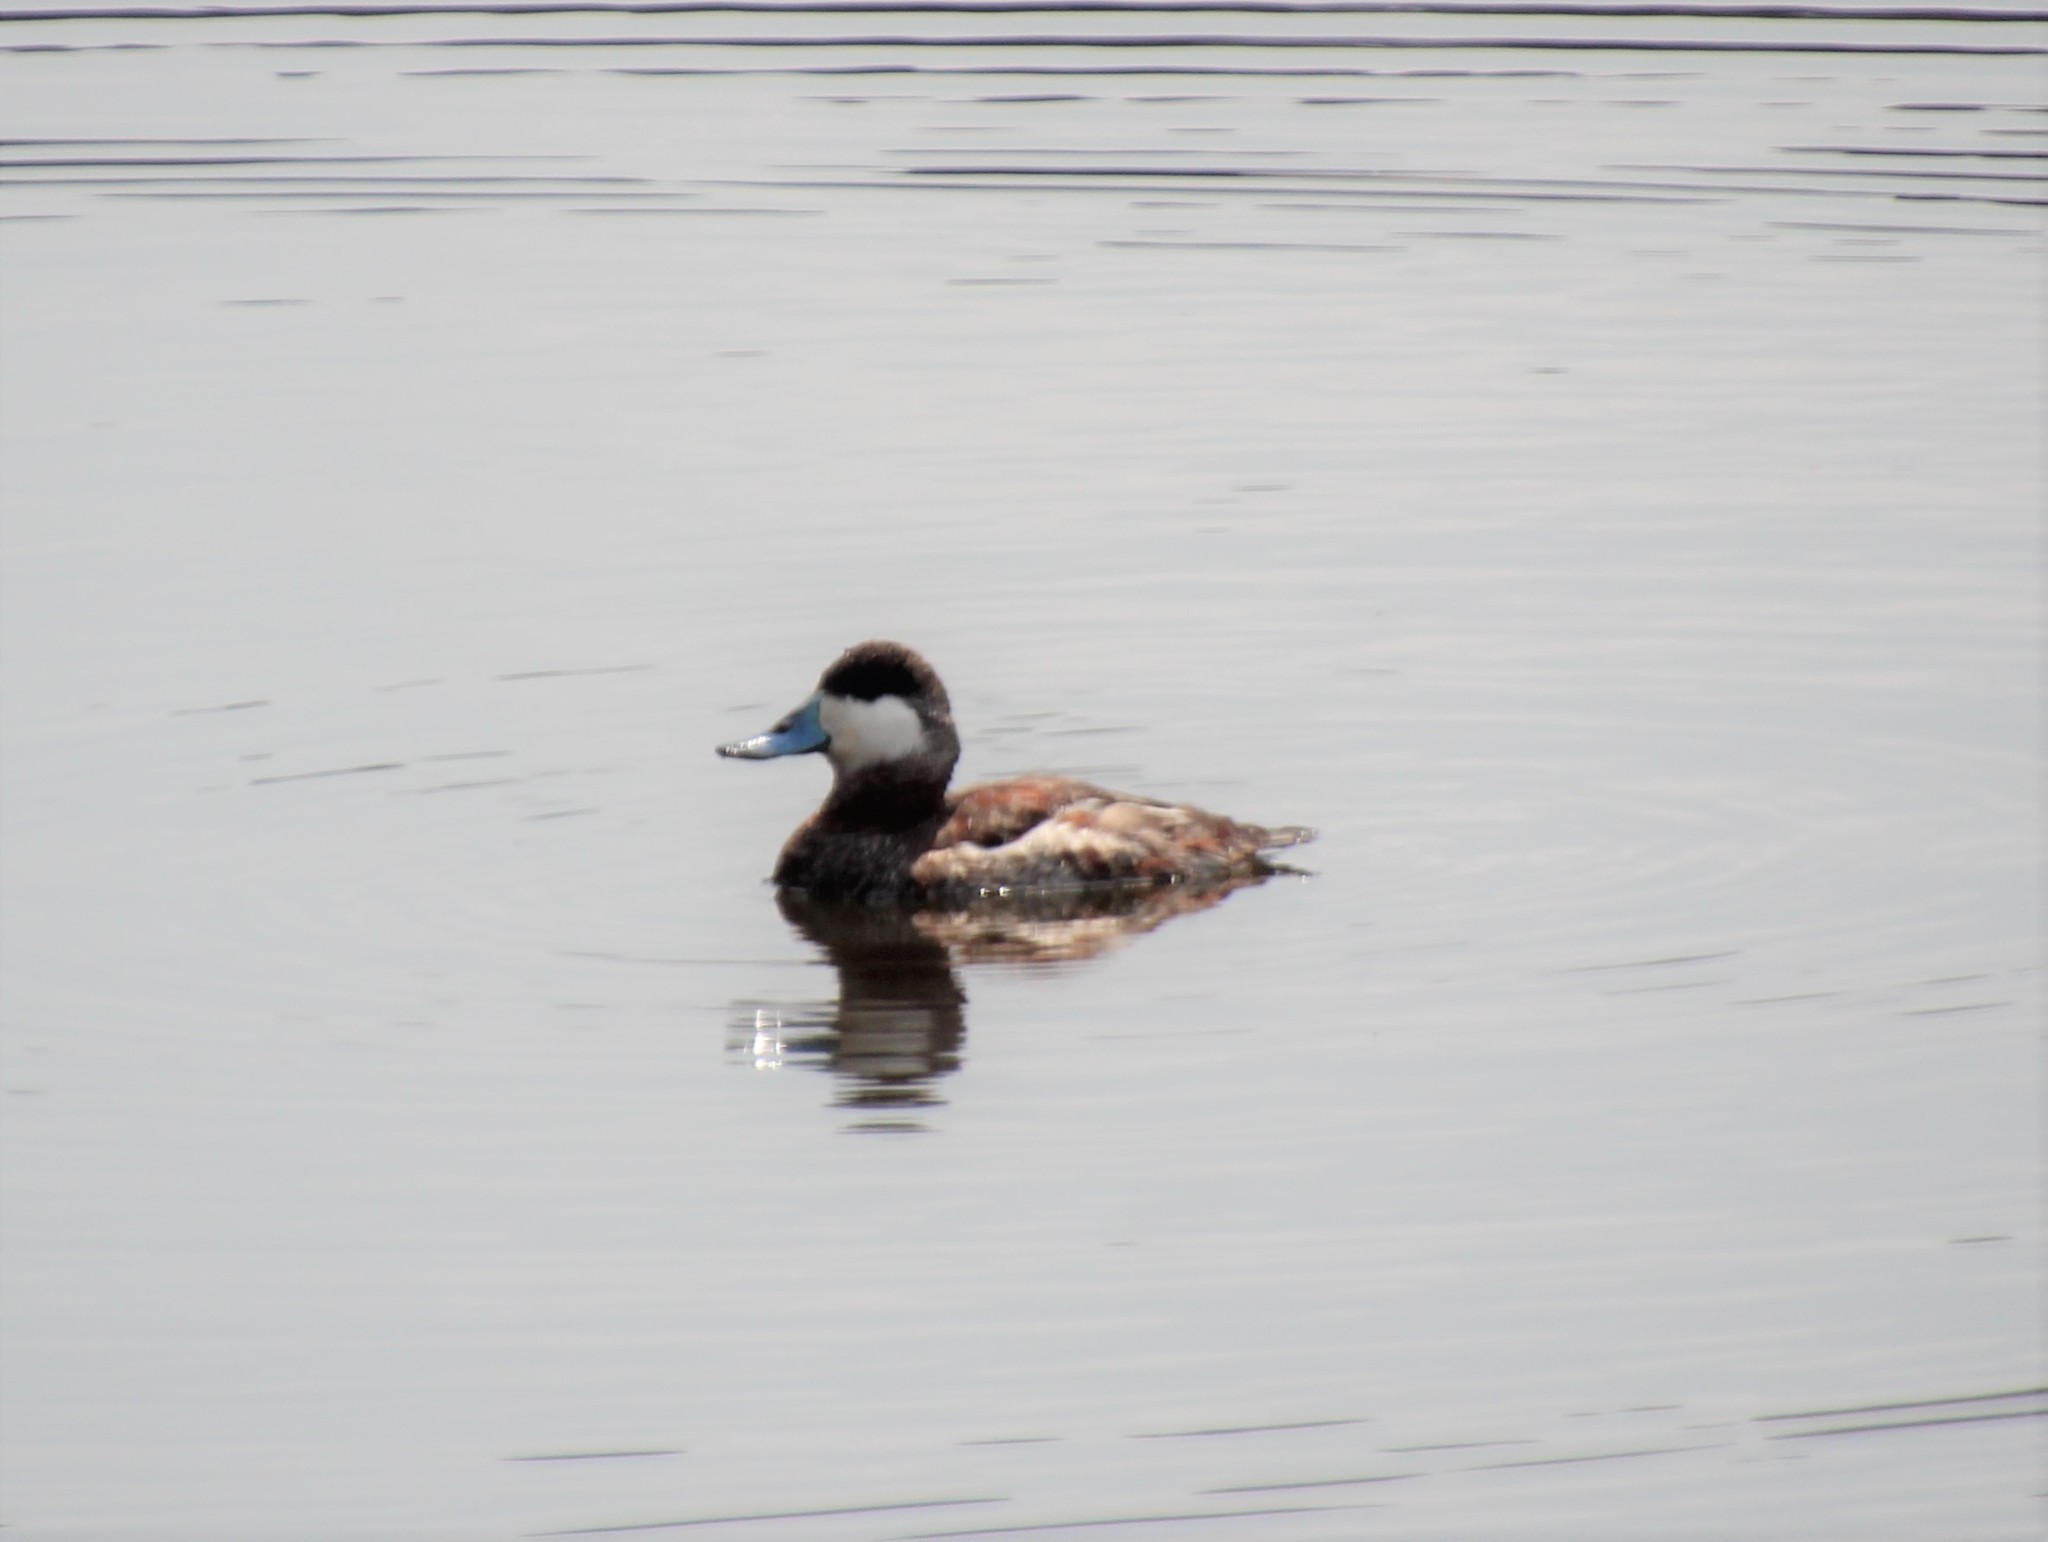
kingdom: Animalia
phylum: Chordata
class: Aves
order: Anseriformes
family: Anatidae
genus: Oxyura
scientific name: Oxyura jamaicensis
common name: Ruddy duck
